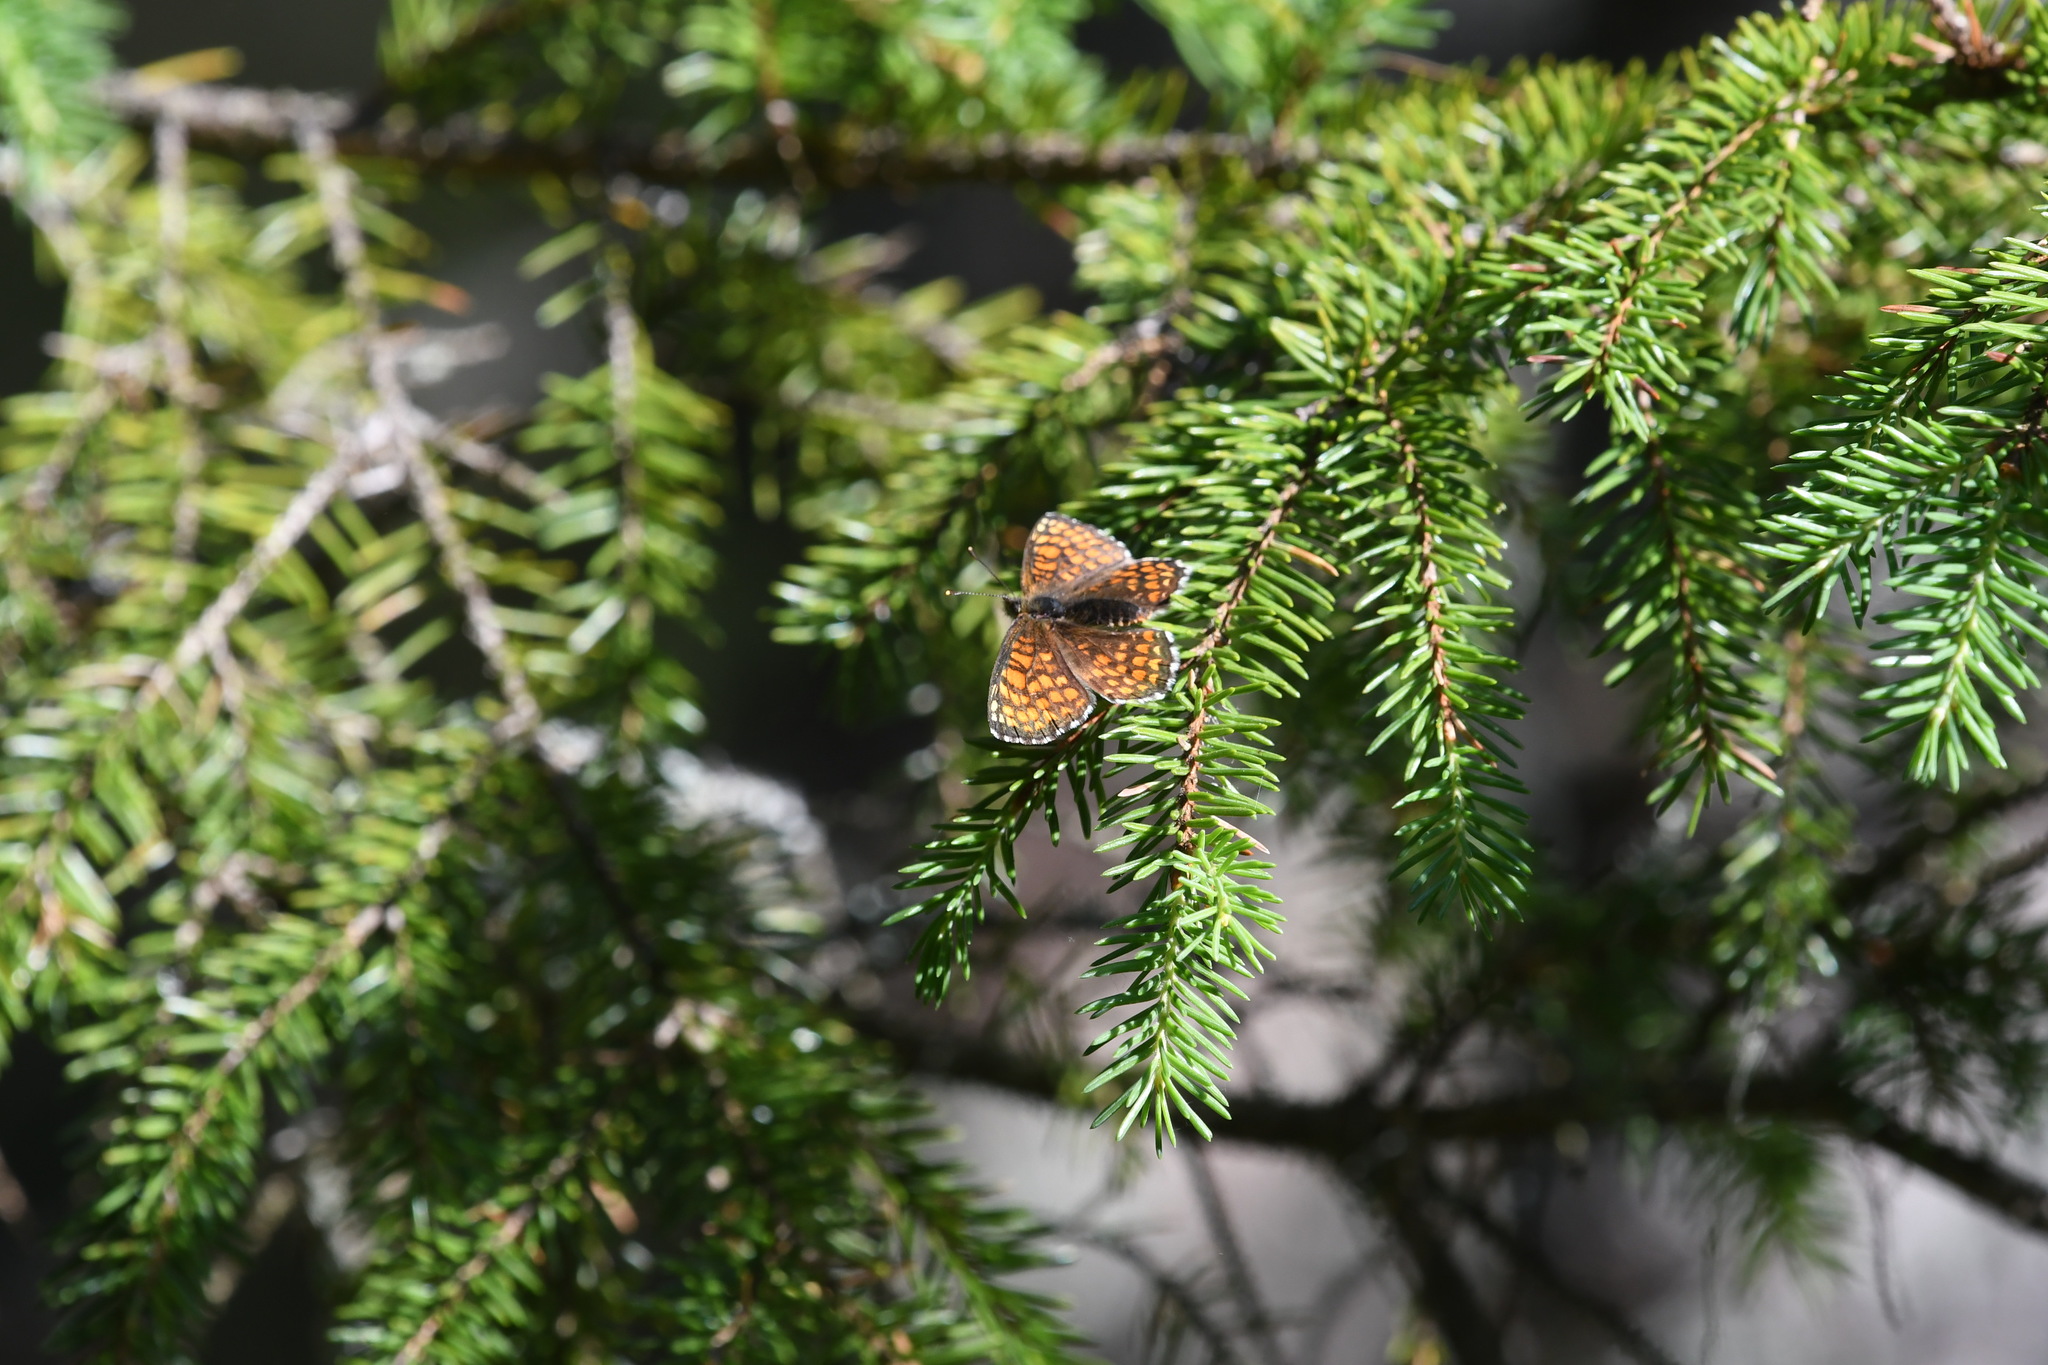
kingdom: Animalia
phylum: Arthropoda
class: Insecta
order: Lepidoptera
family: Nymphalidae
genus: Melitaea
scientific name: Melitaea athalia
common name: Heath fritillary
